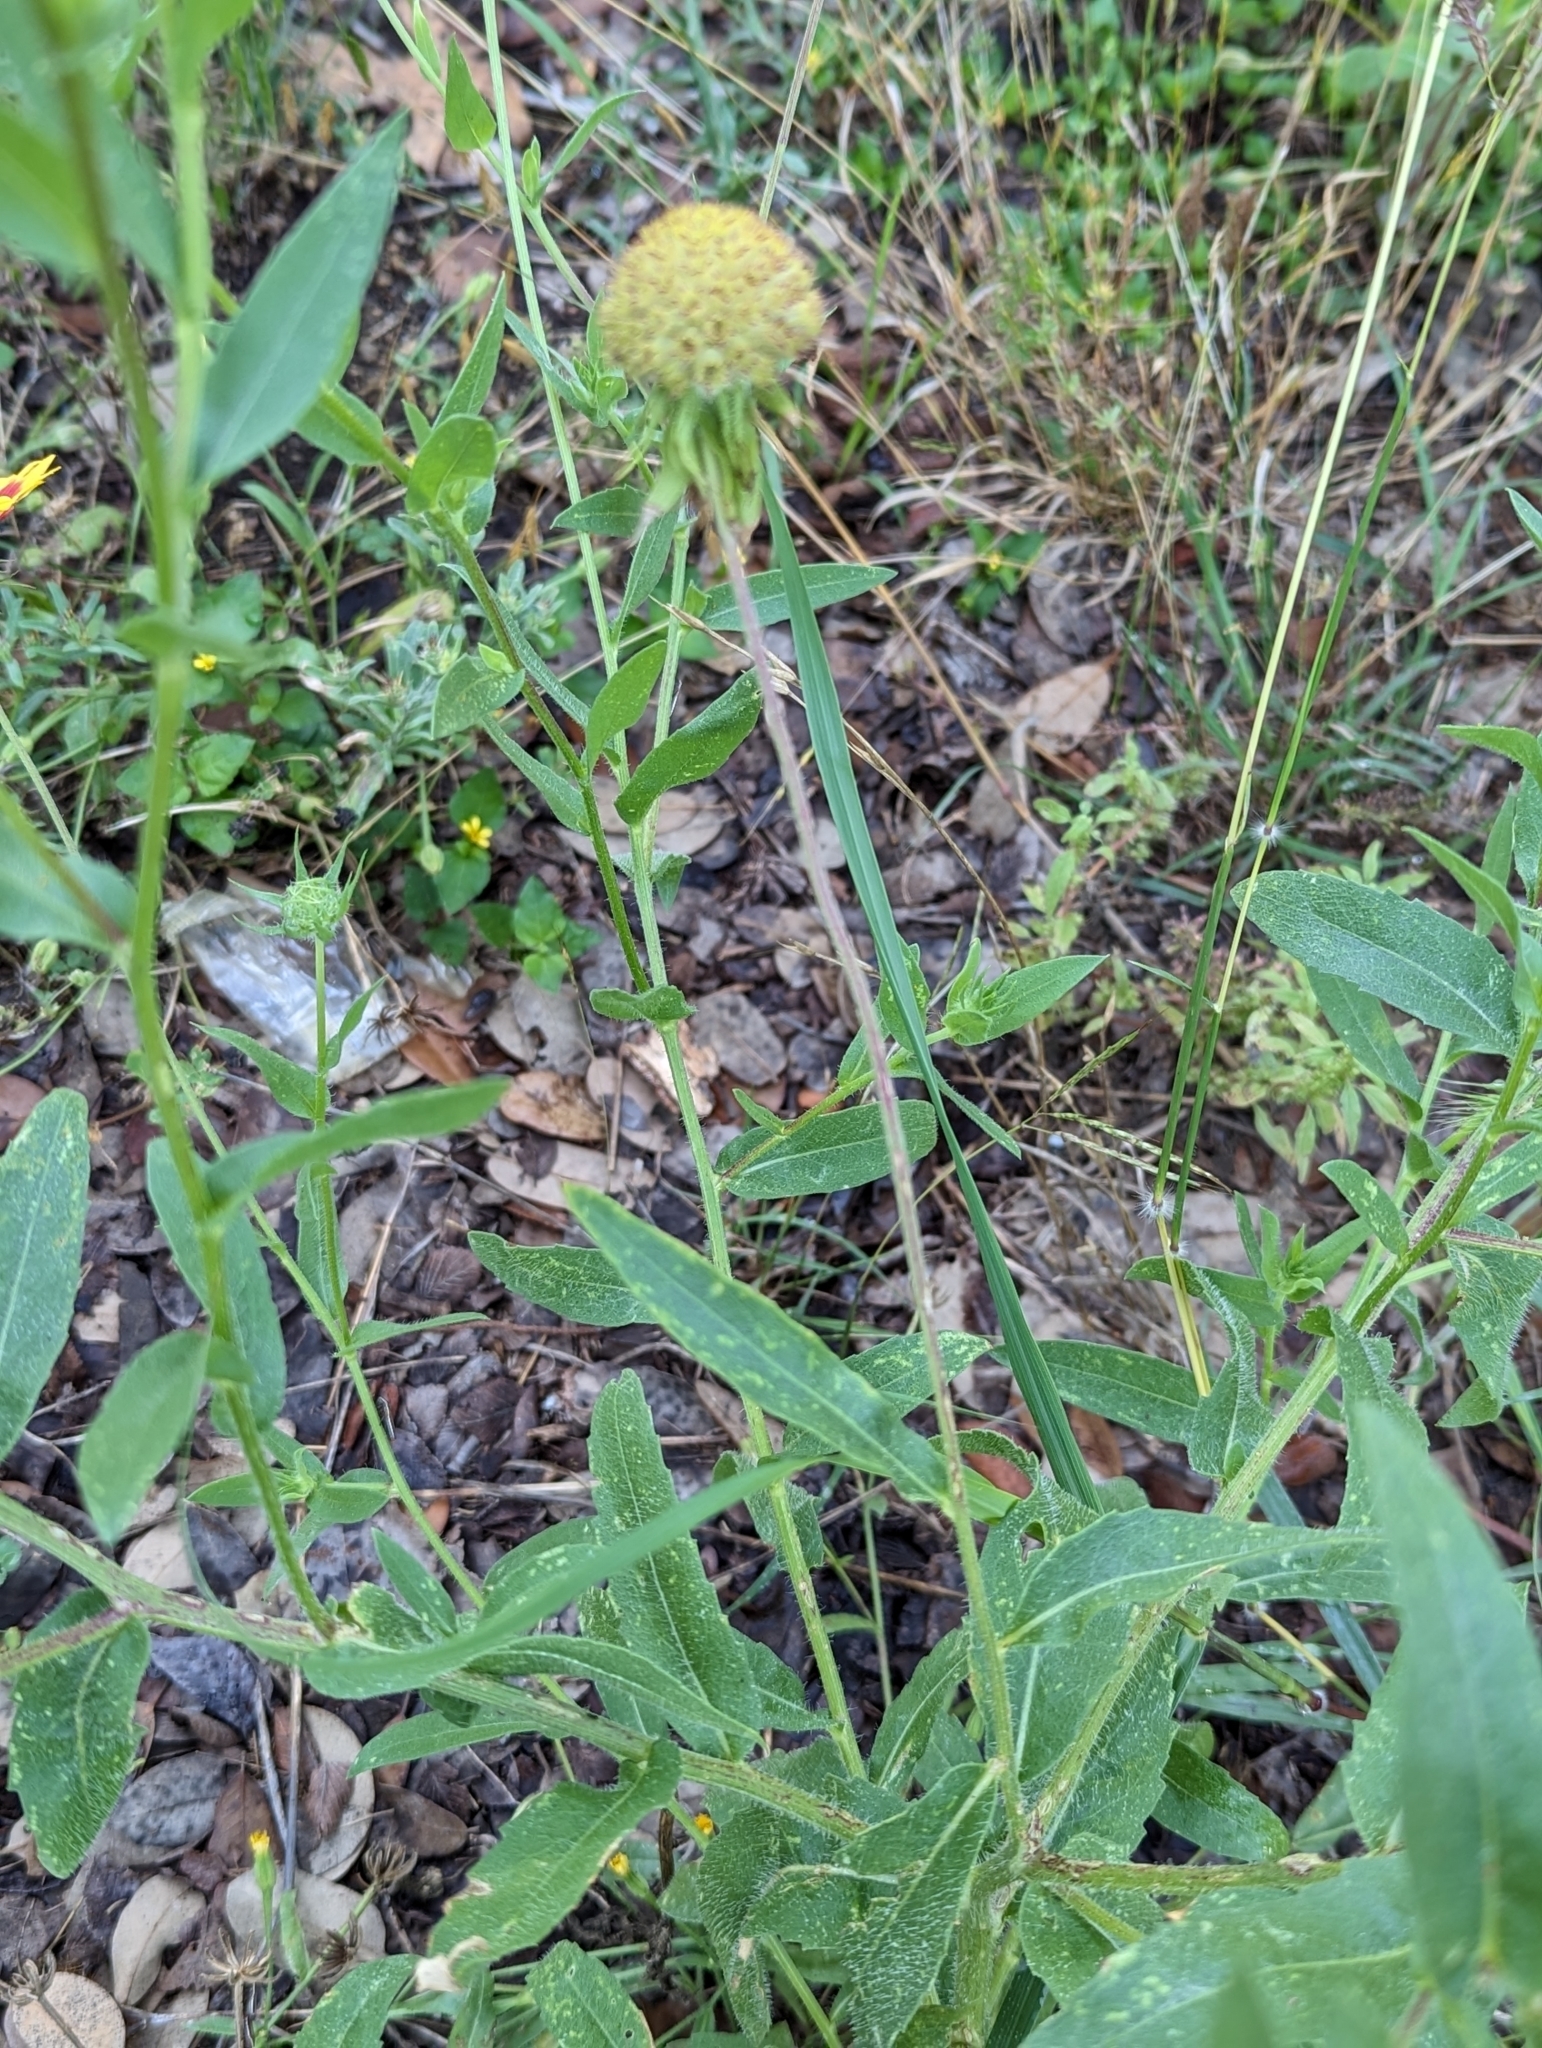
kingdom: Plantae
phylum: Tracheophyta
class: Magnoliopsida
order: Asterales
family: Asteraceae
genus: Gaillardia
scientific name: Gaillardia pulchella
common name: Firewheel
